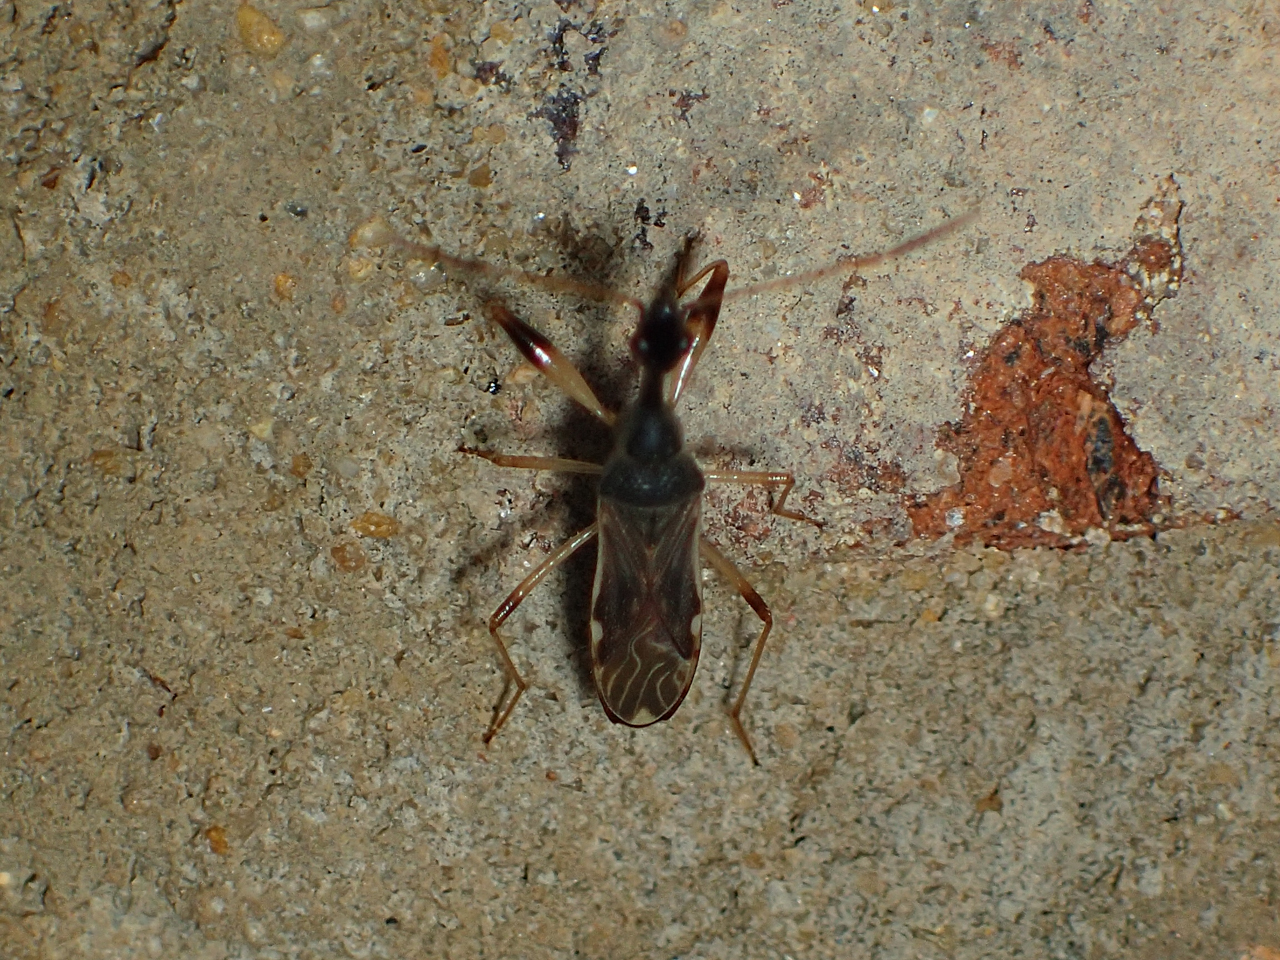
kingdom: Animalia
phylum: Arthropoda
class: Insecta
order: Hemiptera
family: Rhyparochromidae
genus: Myodocha
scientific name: Myodocha serripes
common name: Long-necked seed bug
